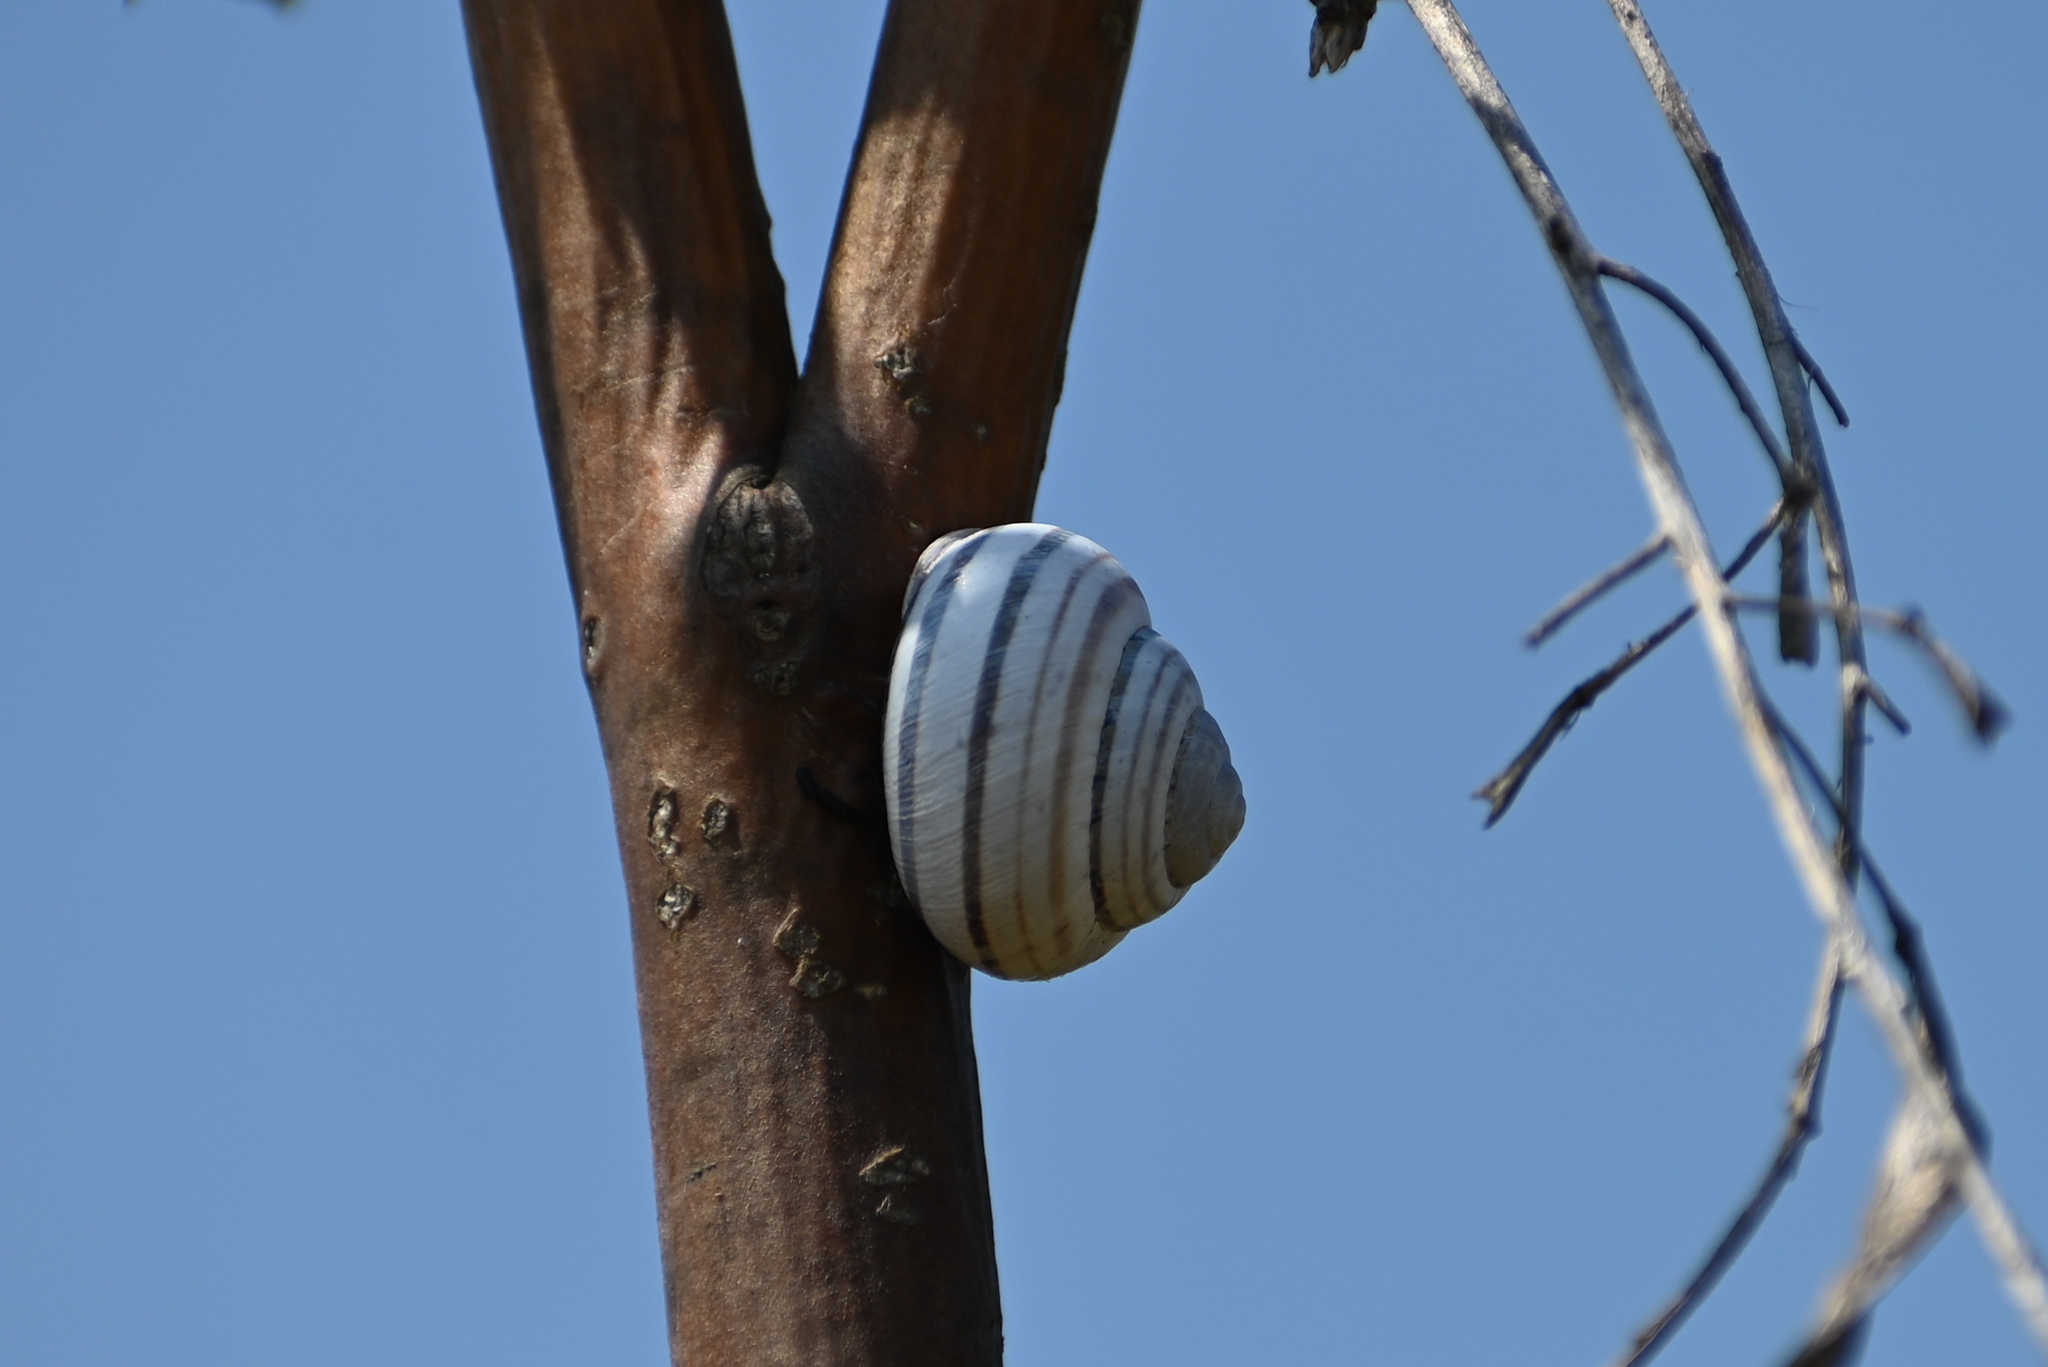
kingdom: Animalia
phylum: Mollusca
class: Gastropoda
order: Stylommatophora
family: Helicidae
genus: Caucasotachea
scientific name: Caucasotachea vindobonensis
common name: European helicid land snail
